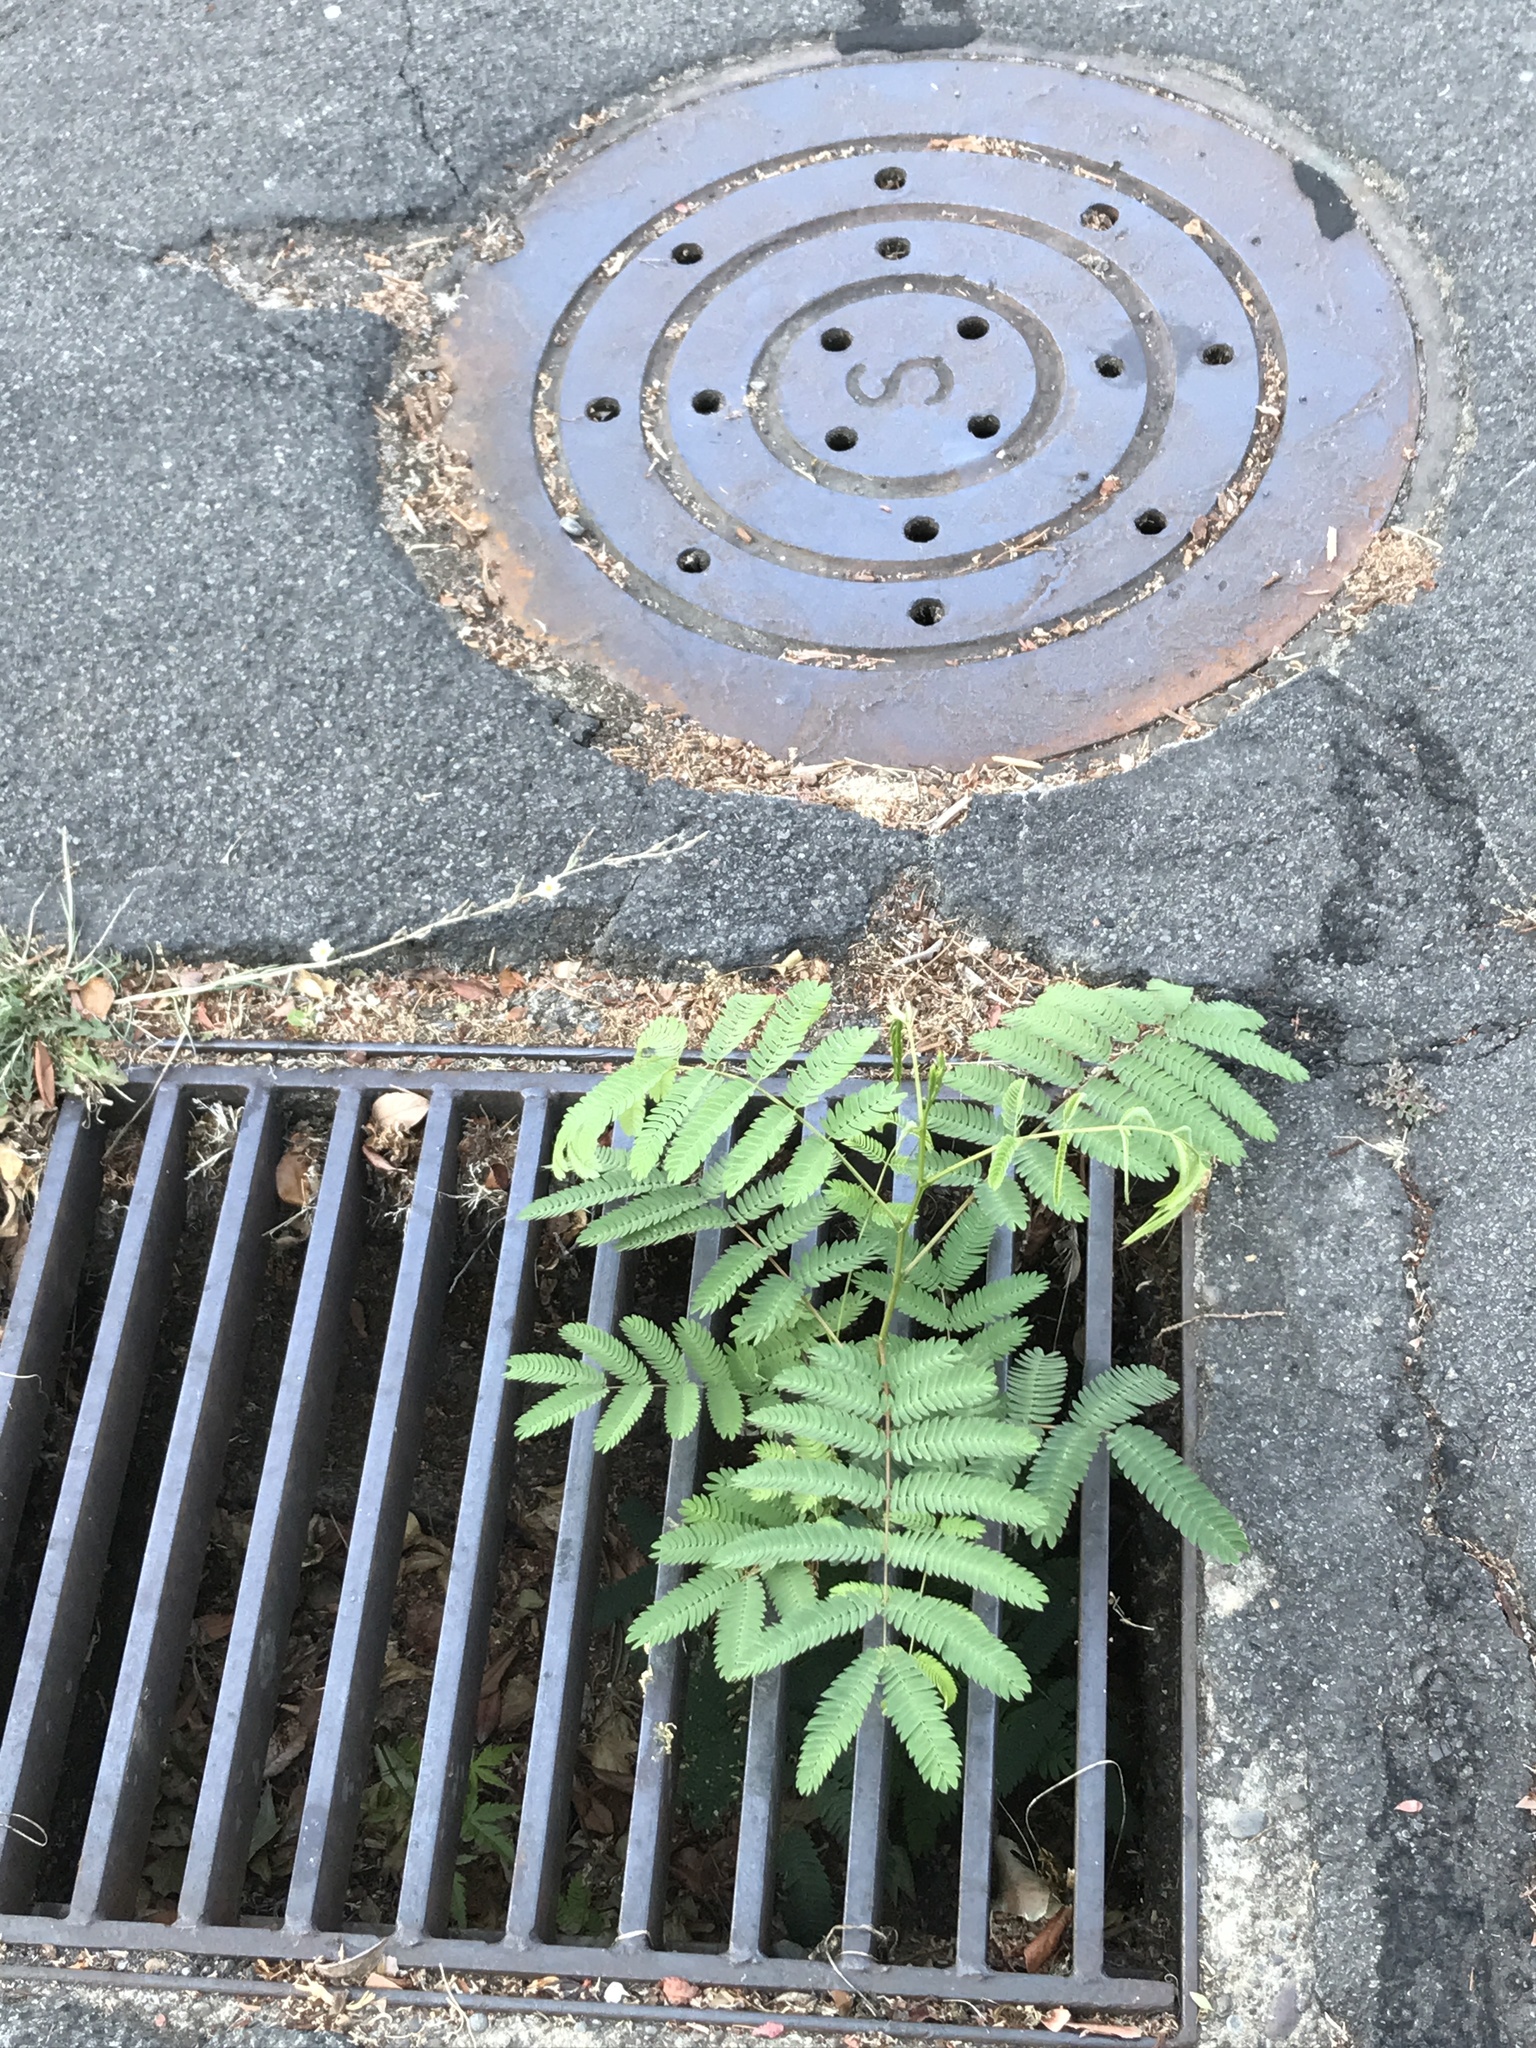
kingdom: Plantae
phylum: Tracheophyta
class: Magnoliopsida
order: Fabales
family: Fabaceae
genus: Albizia
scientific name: Albizia julibrissin
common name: Silktree
